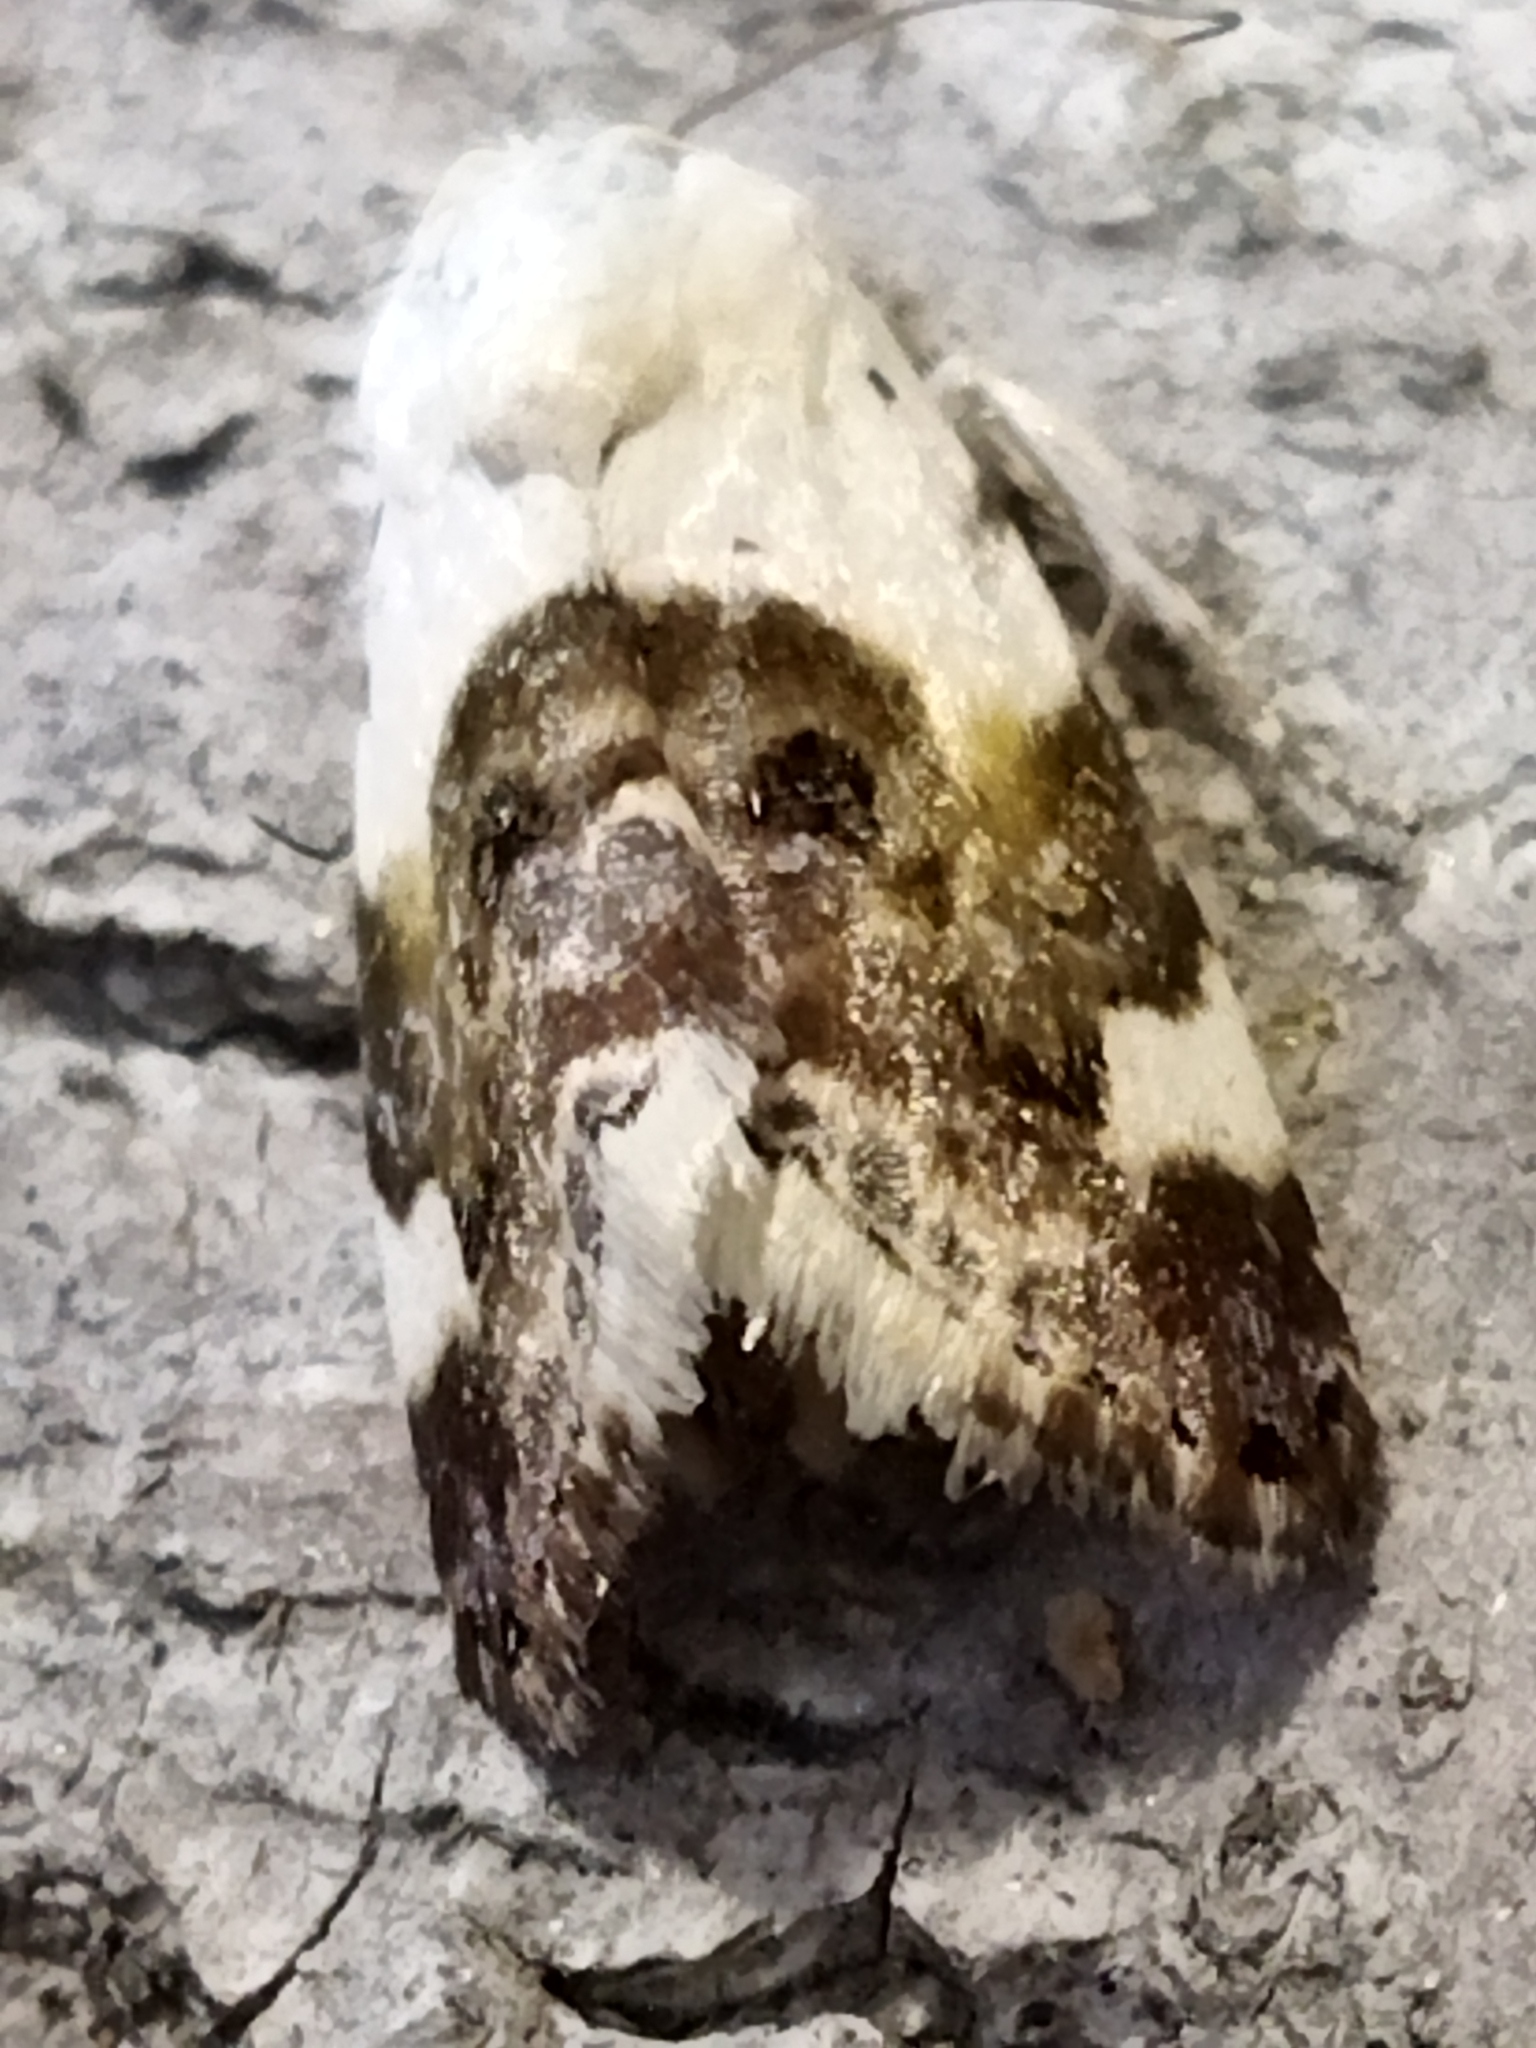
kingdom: Animalia
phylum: Arthropoda
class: Insecta
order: Lepidoptera
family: Noctuidae
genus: Acontia
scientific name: Acontia lucida
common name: Pale shoulder
